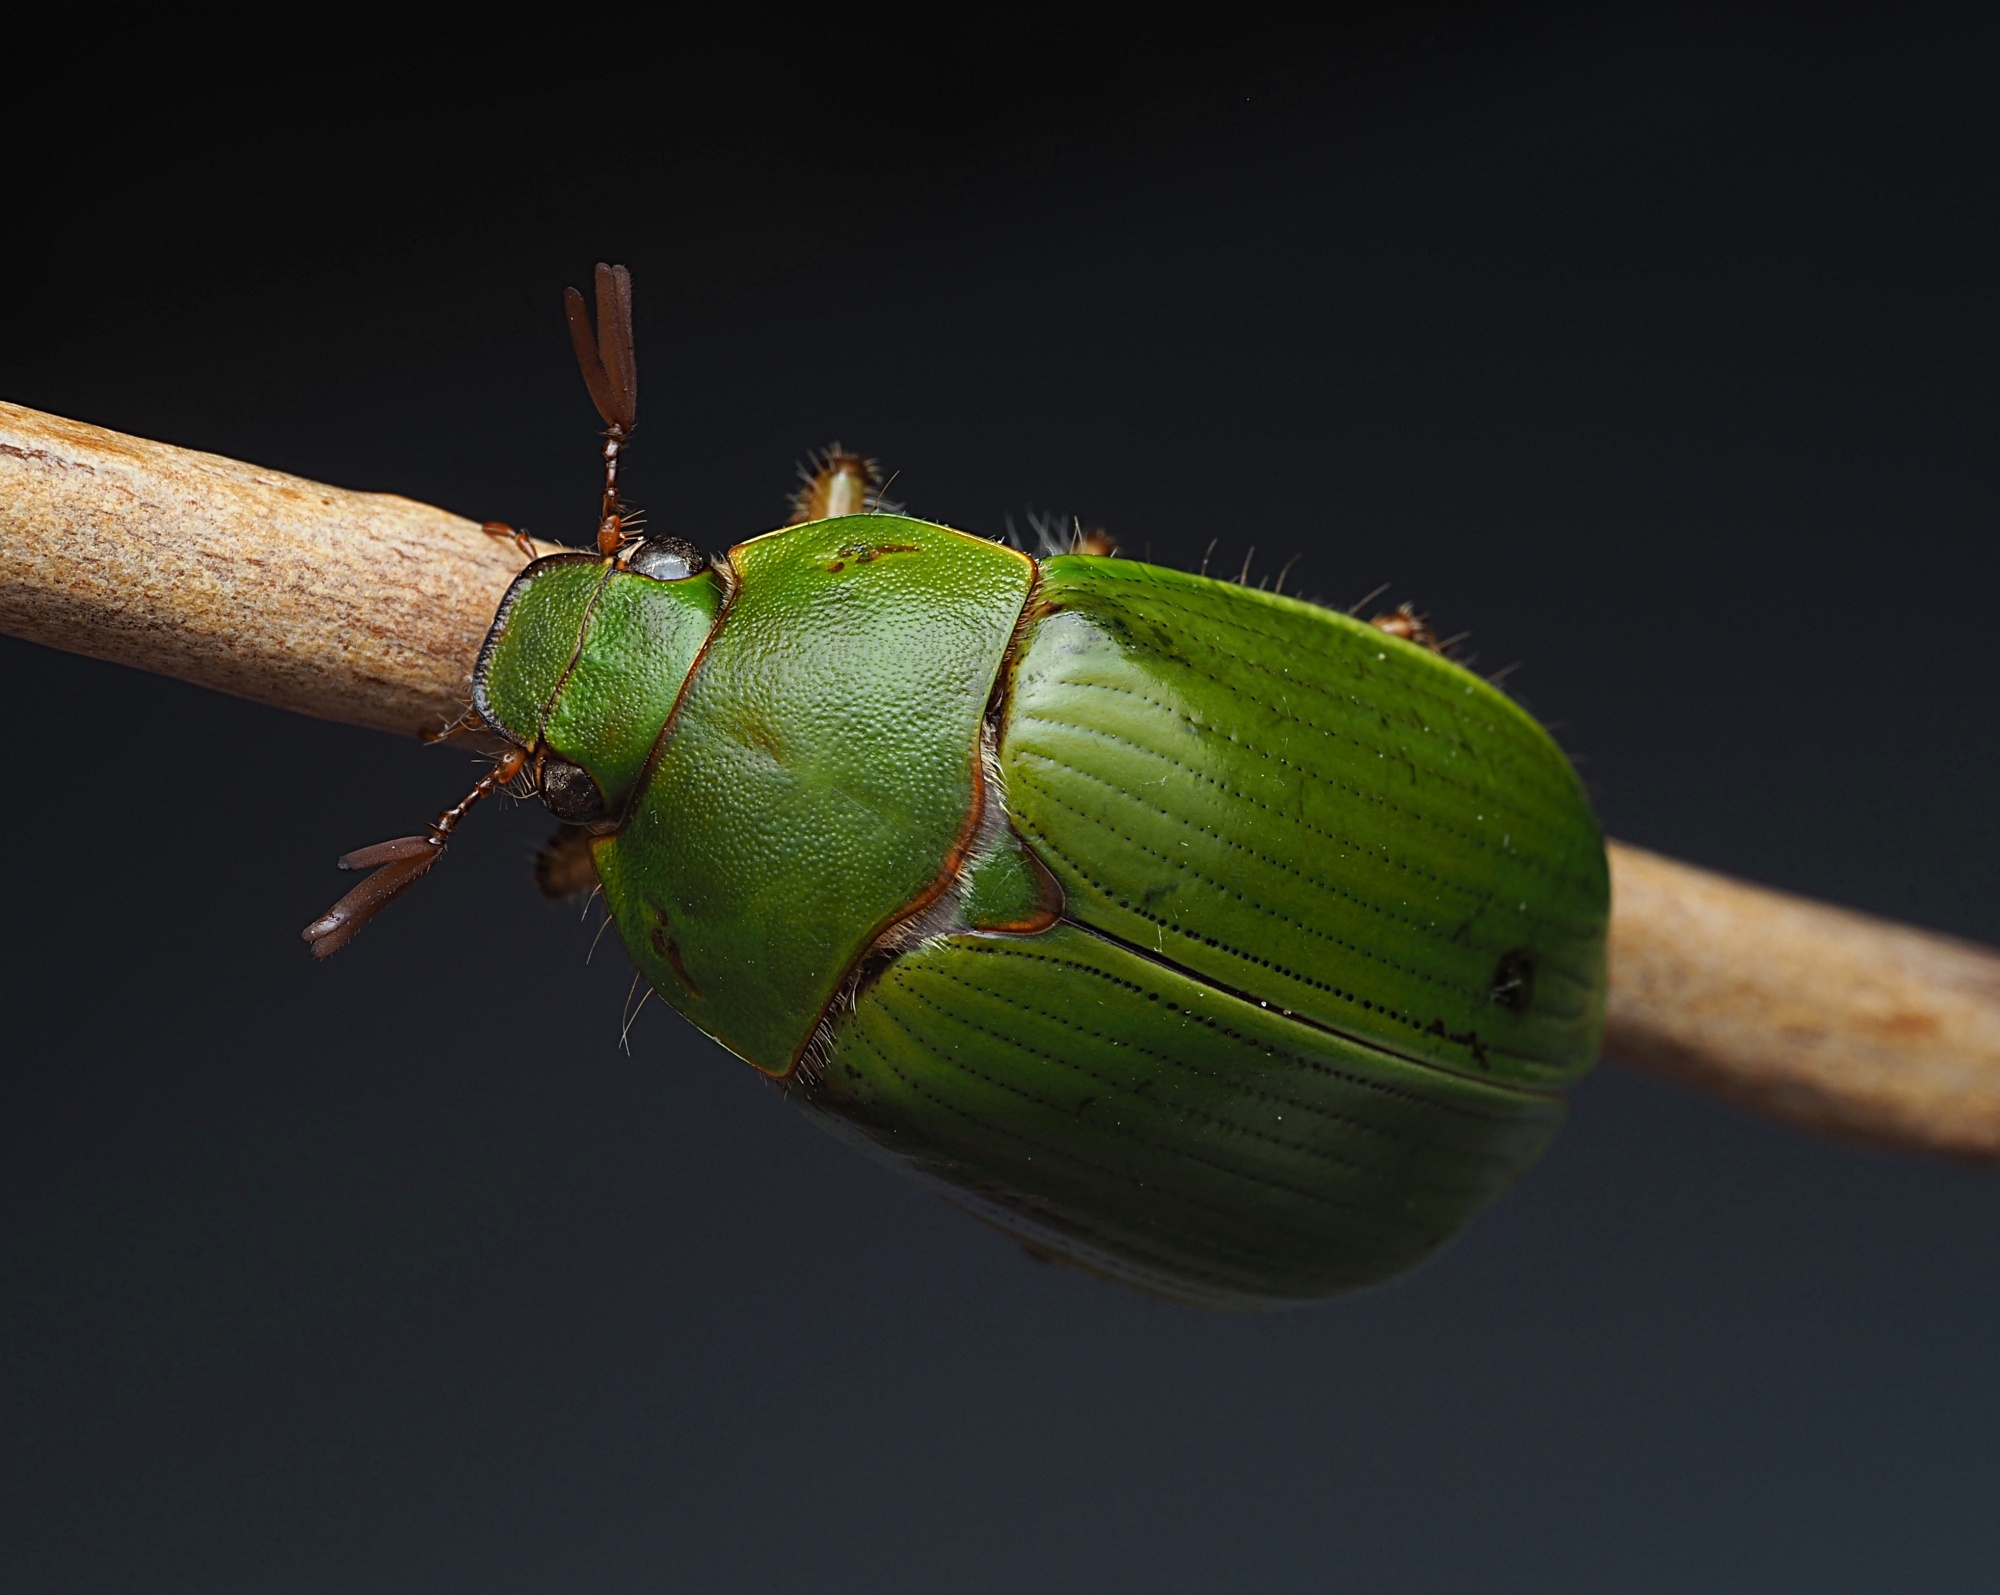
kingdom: Animalia
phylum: Arthropoda
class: Insecta
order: Coleoptera
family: Scarabaeidae
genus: Stethaspis
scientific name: Stethaspis longicornis
